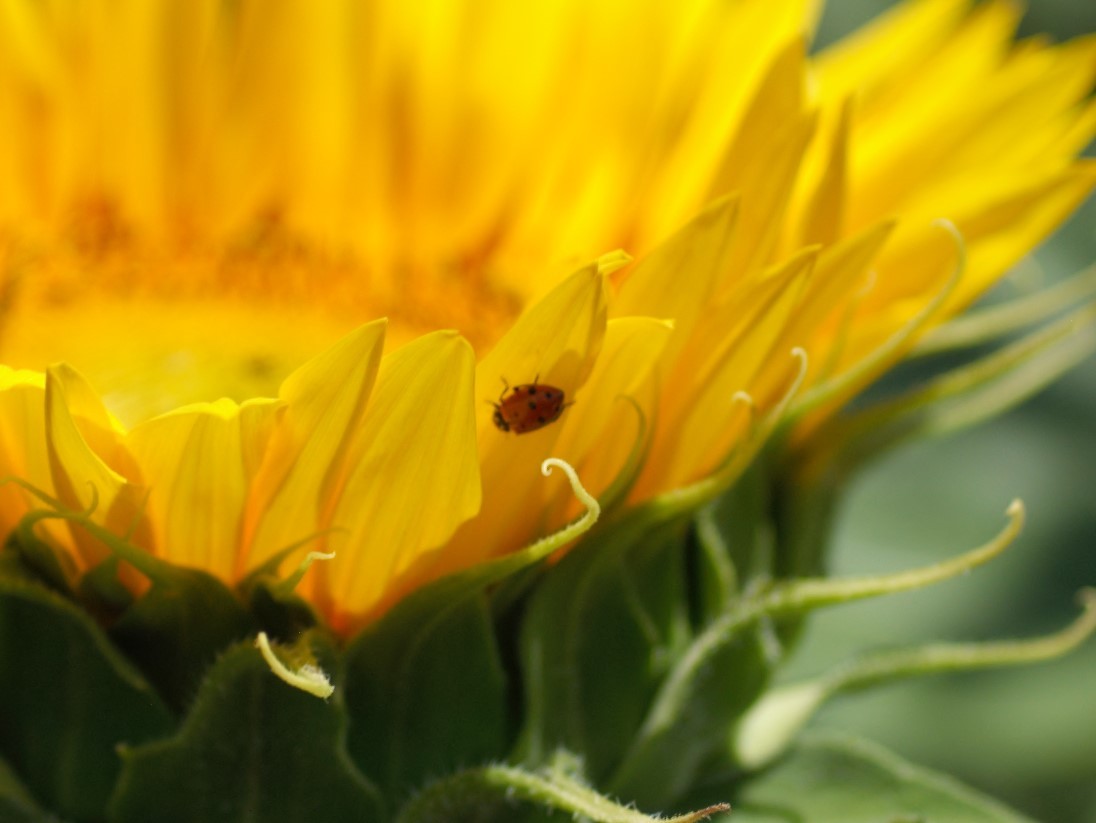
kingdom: Animalia
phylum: Arthropoda
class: Insecta
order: Coleoptera
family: Coccinellidae
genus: Hippodamia
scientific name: Hippodamia convergens
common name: Convergent lady beetle
